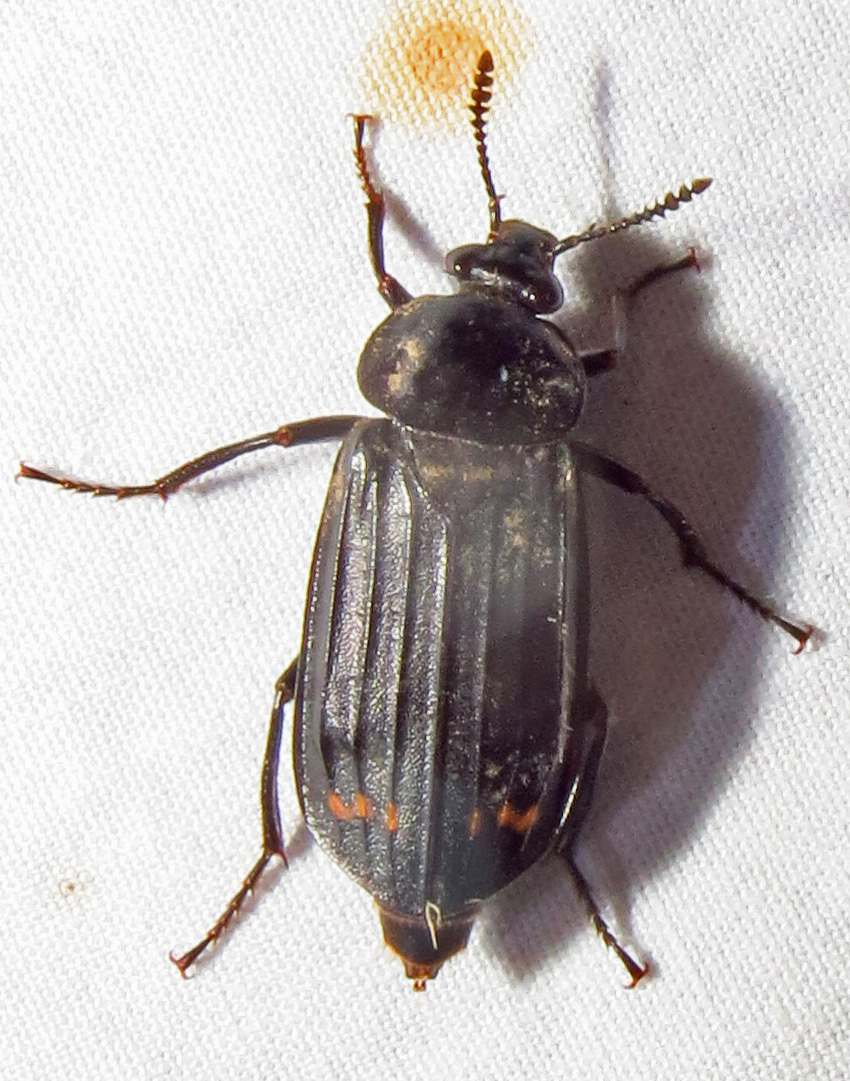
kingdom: Animalia
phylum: Arthropoda
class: Insecta
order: Coleoptera
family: Staphylinidae
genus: Necrodes
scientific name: Necrodes surinamensis
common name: Red-lined carrion beetle
